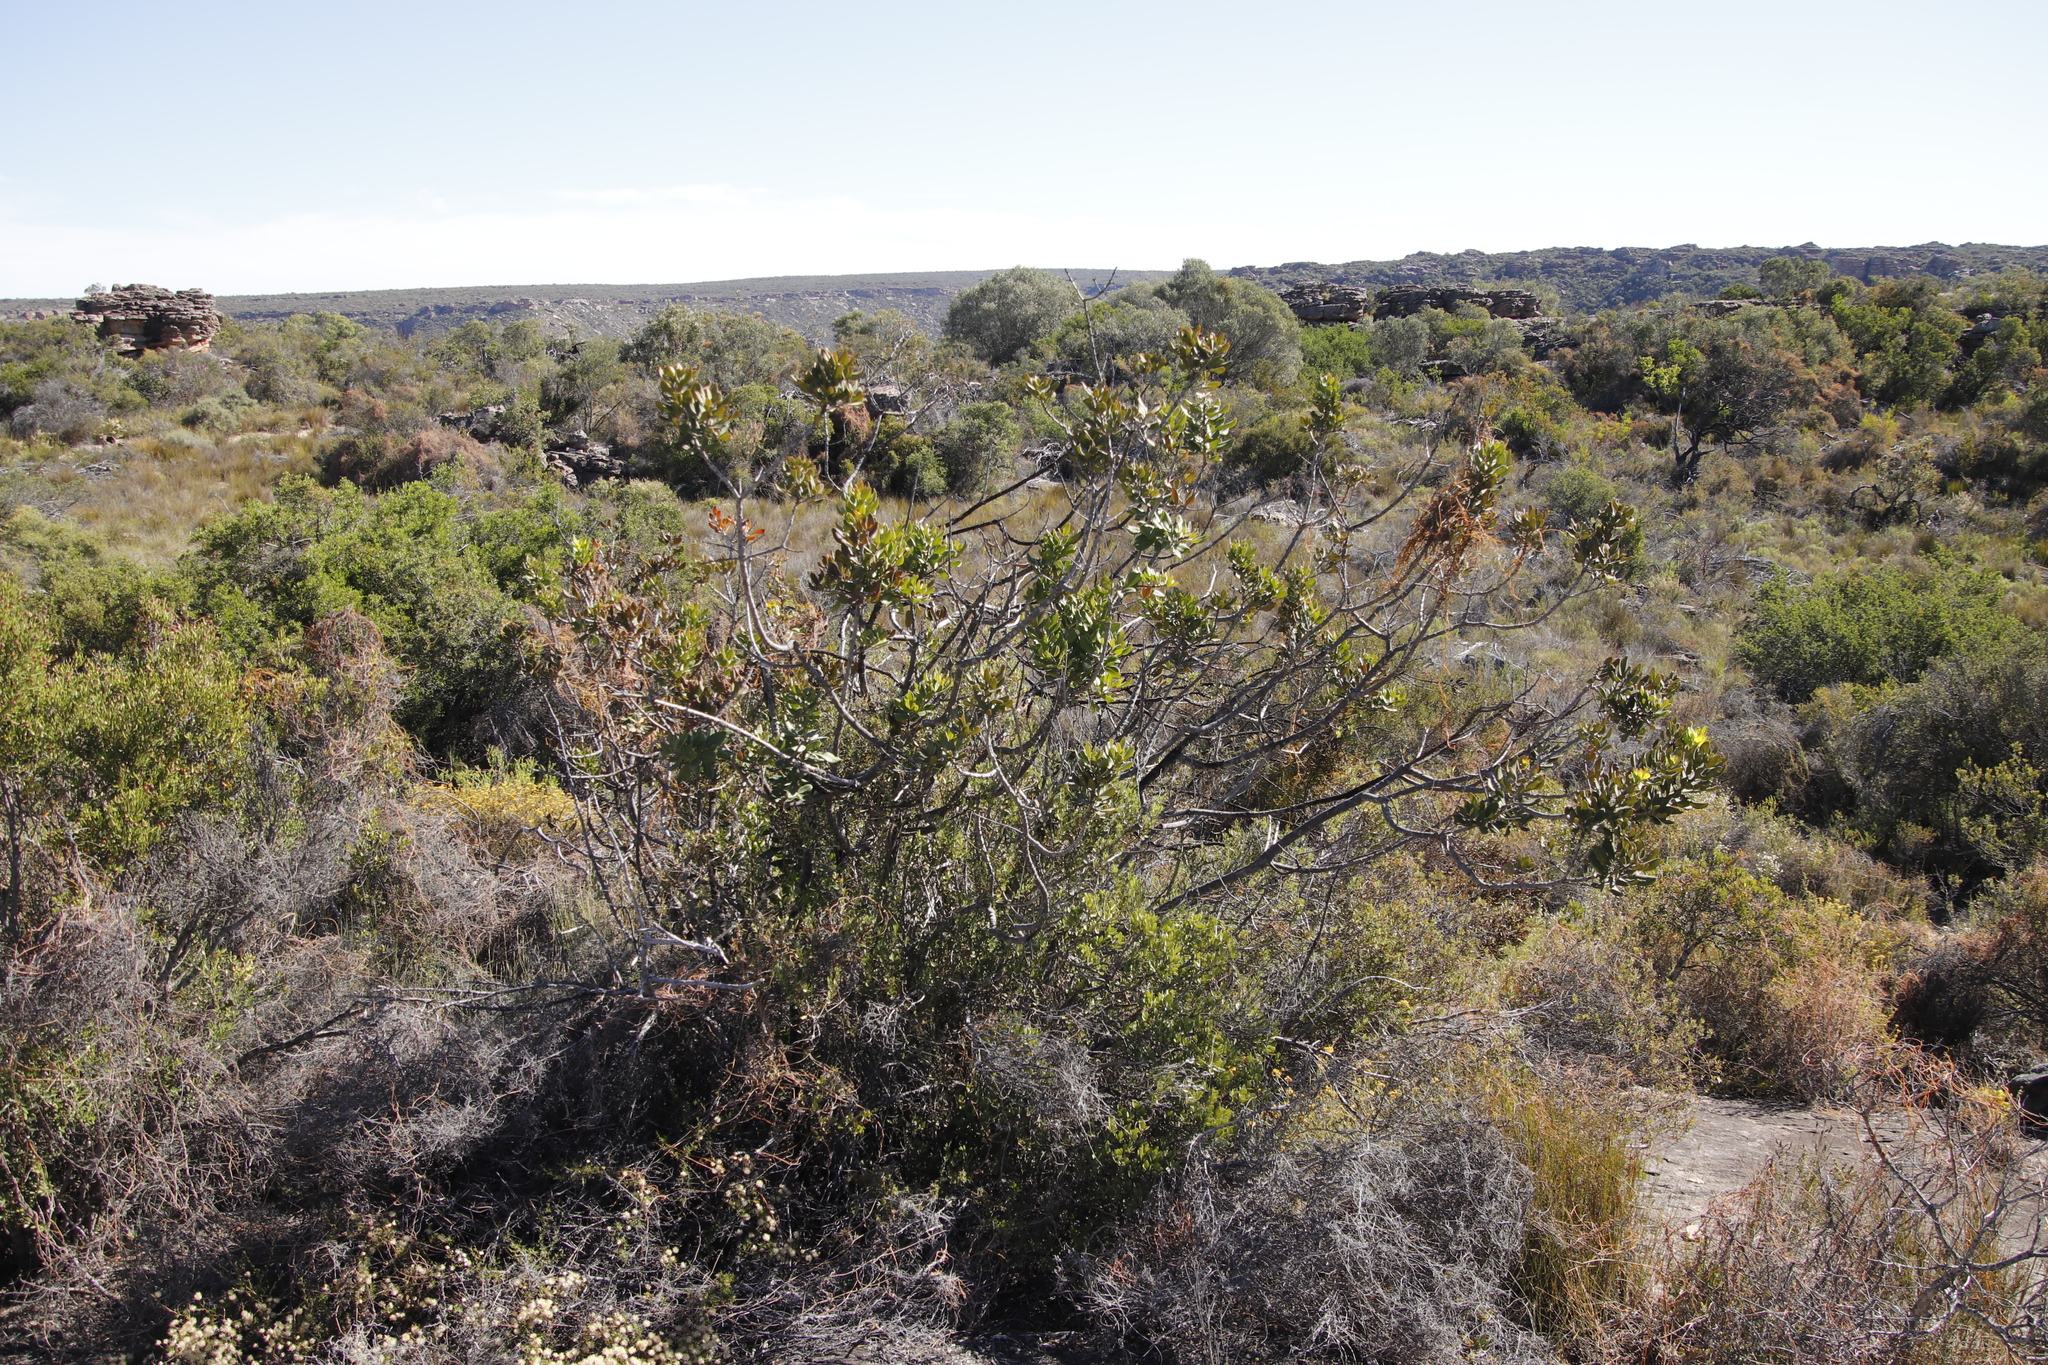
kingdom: Plantae
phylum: Tracheophyta
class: Magnoliopsida
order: Sapindales
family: Anacardiaceae
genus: Searsia
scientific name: Searsia scytophylla
